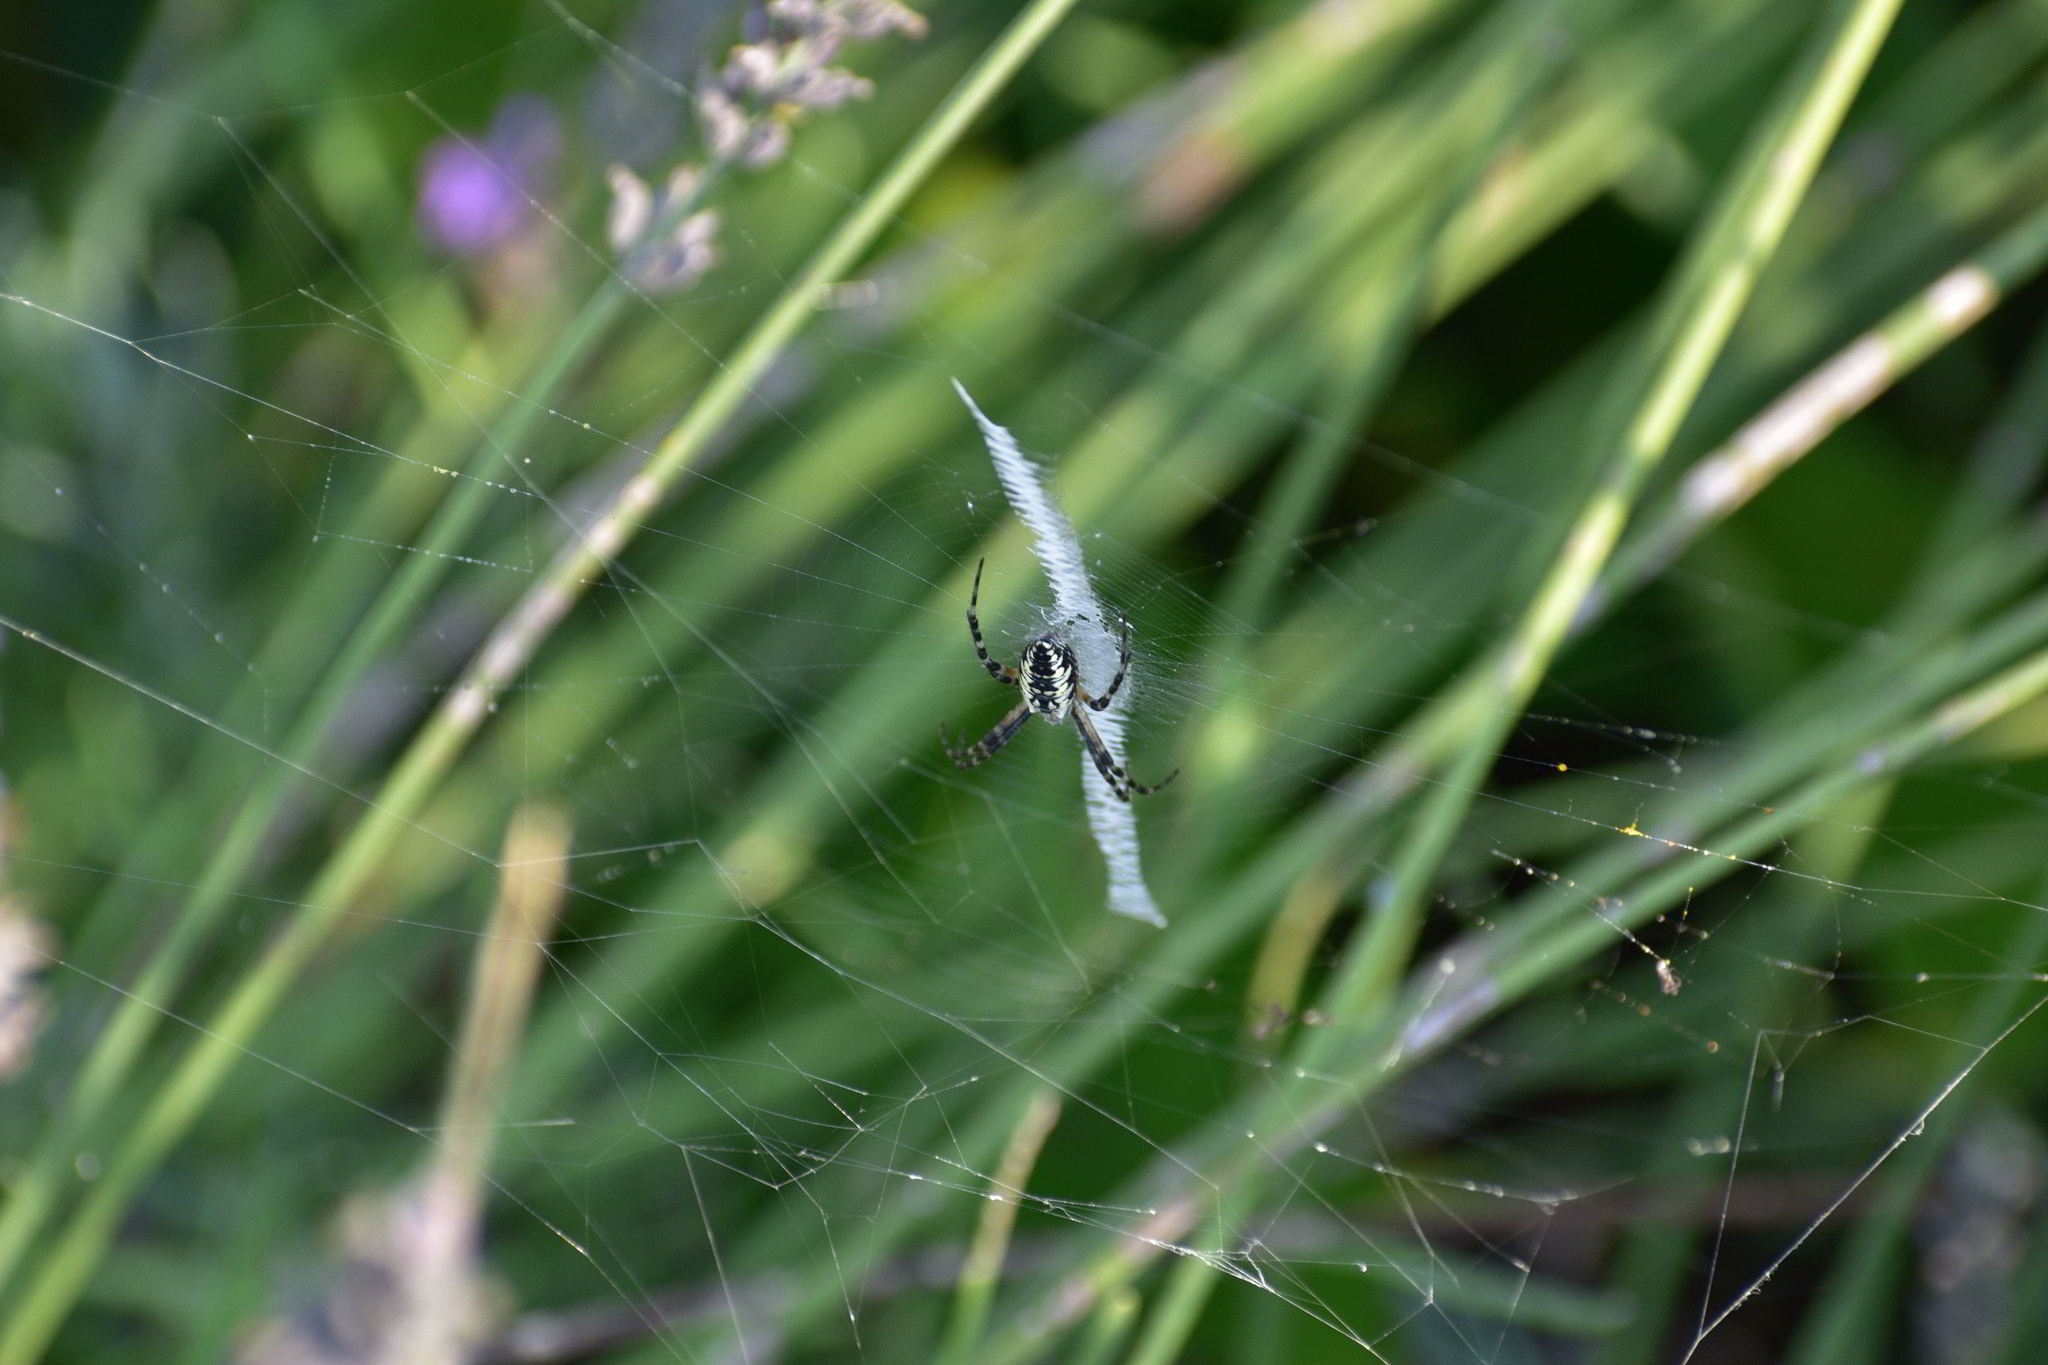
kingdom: Animalia
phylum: Arthropoda
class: Arachnida
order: Araneae
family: Araneidae
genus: Argiope
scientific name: Argiope aurantia
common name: Orb weavers
